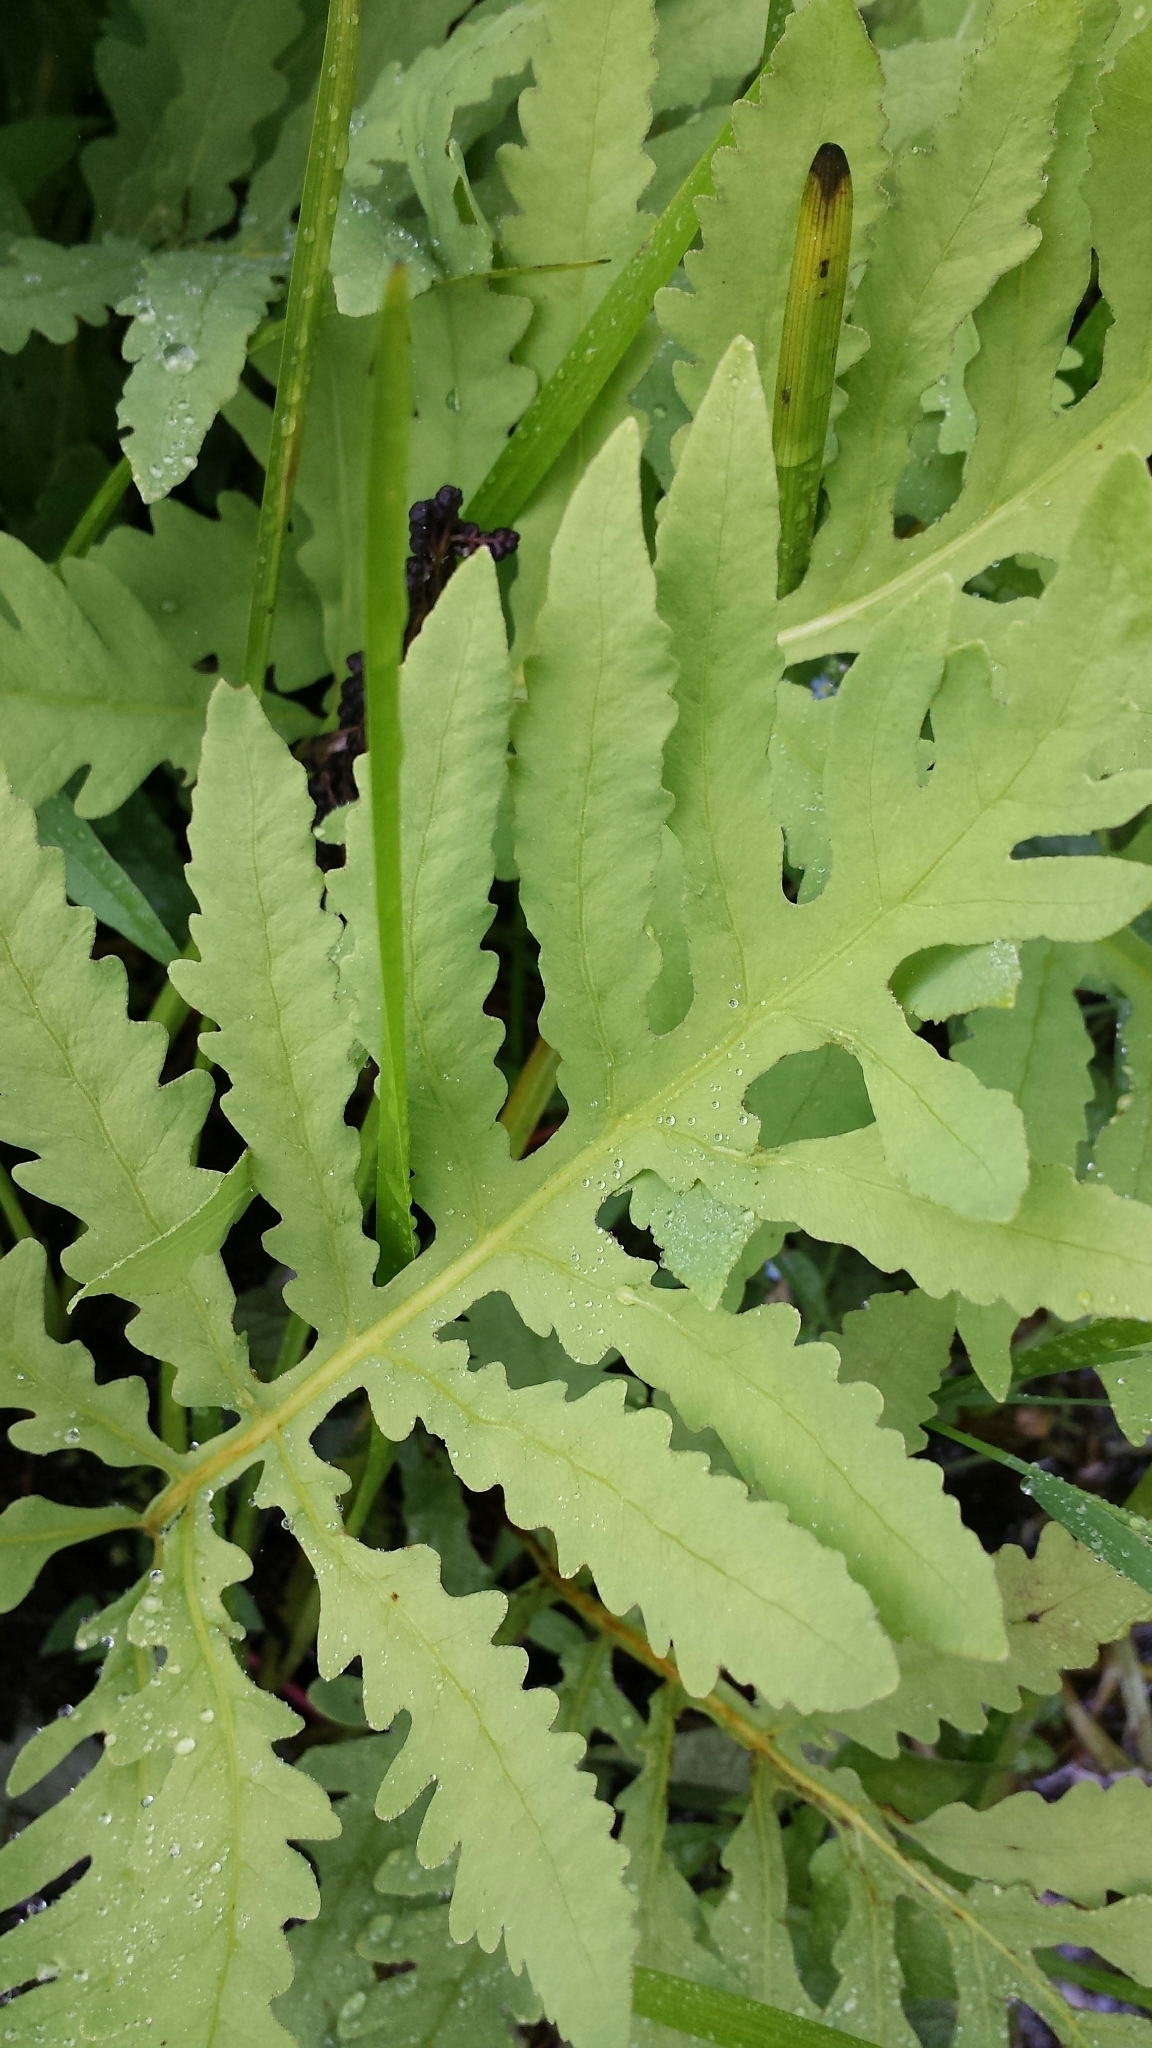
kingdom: Plantae
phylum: Tracheophyta
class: Polypodiopsida
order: Polypodiales
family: Onocleaceae
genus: Onoclea
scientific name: Onoclea sensibilis
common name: Sensitive fern
